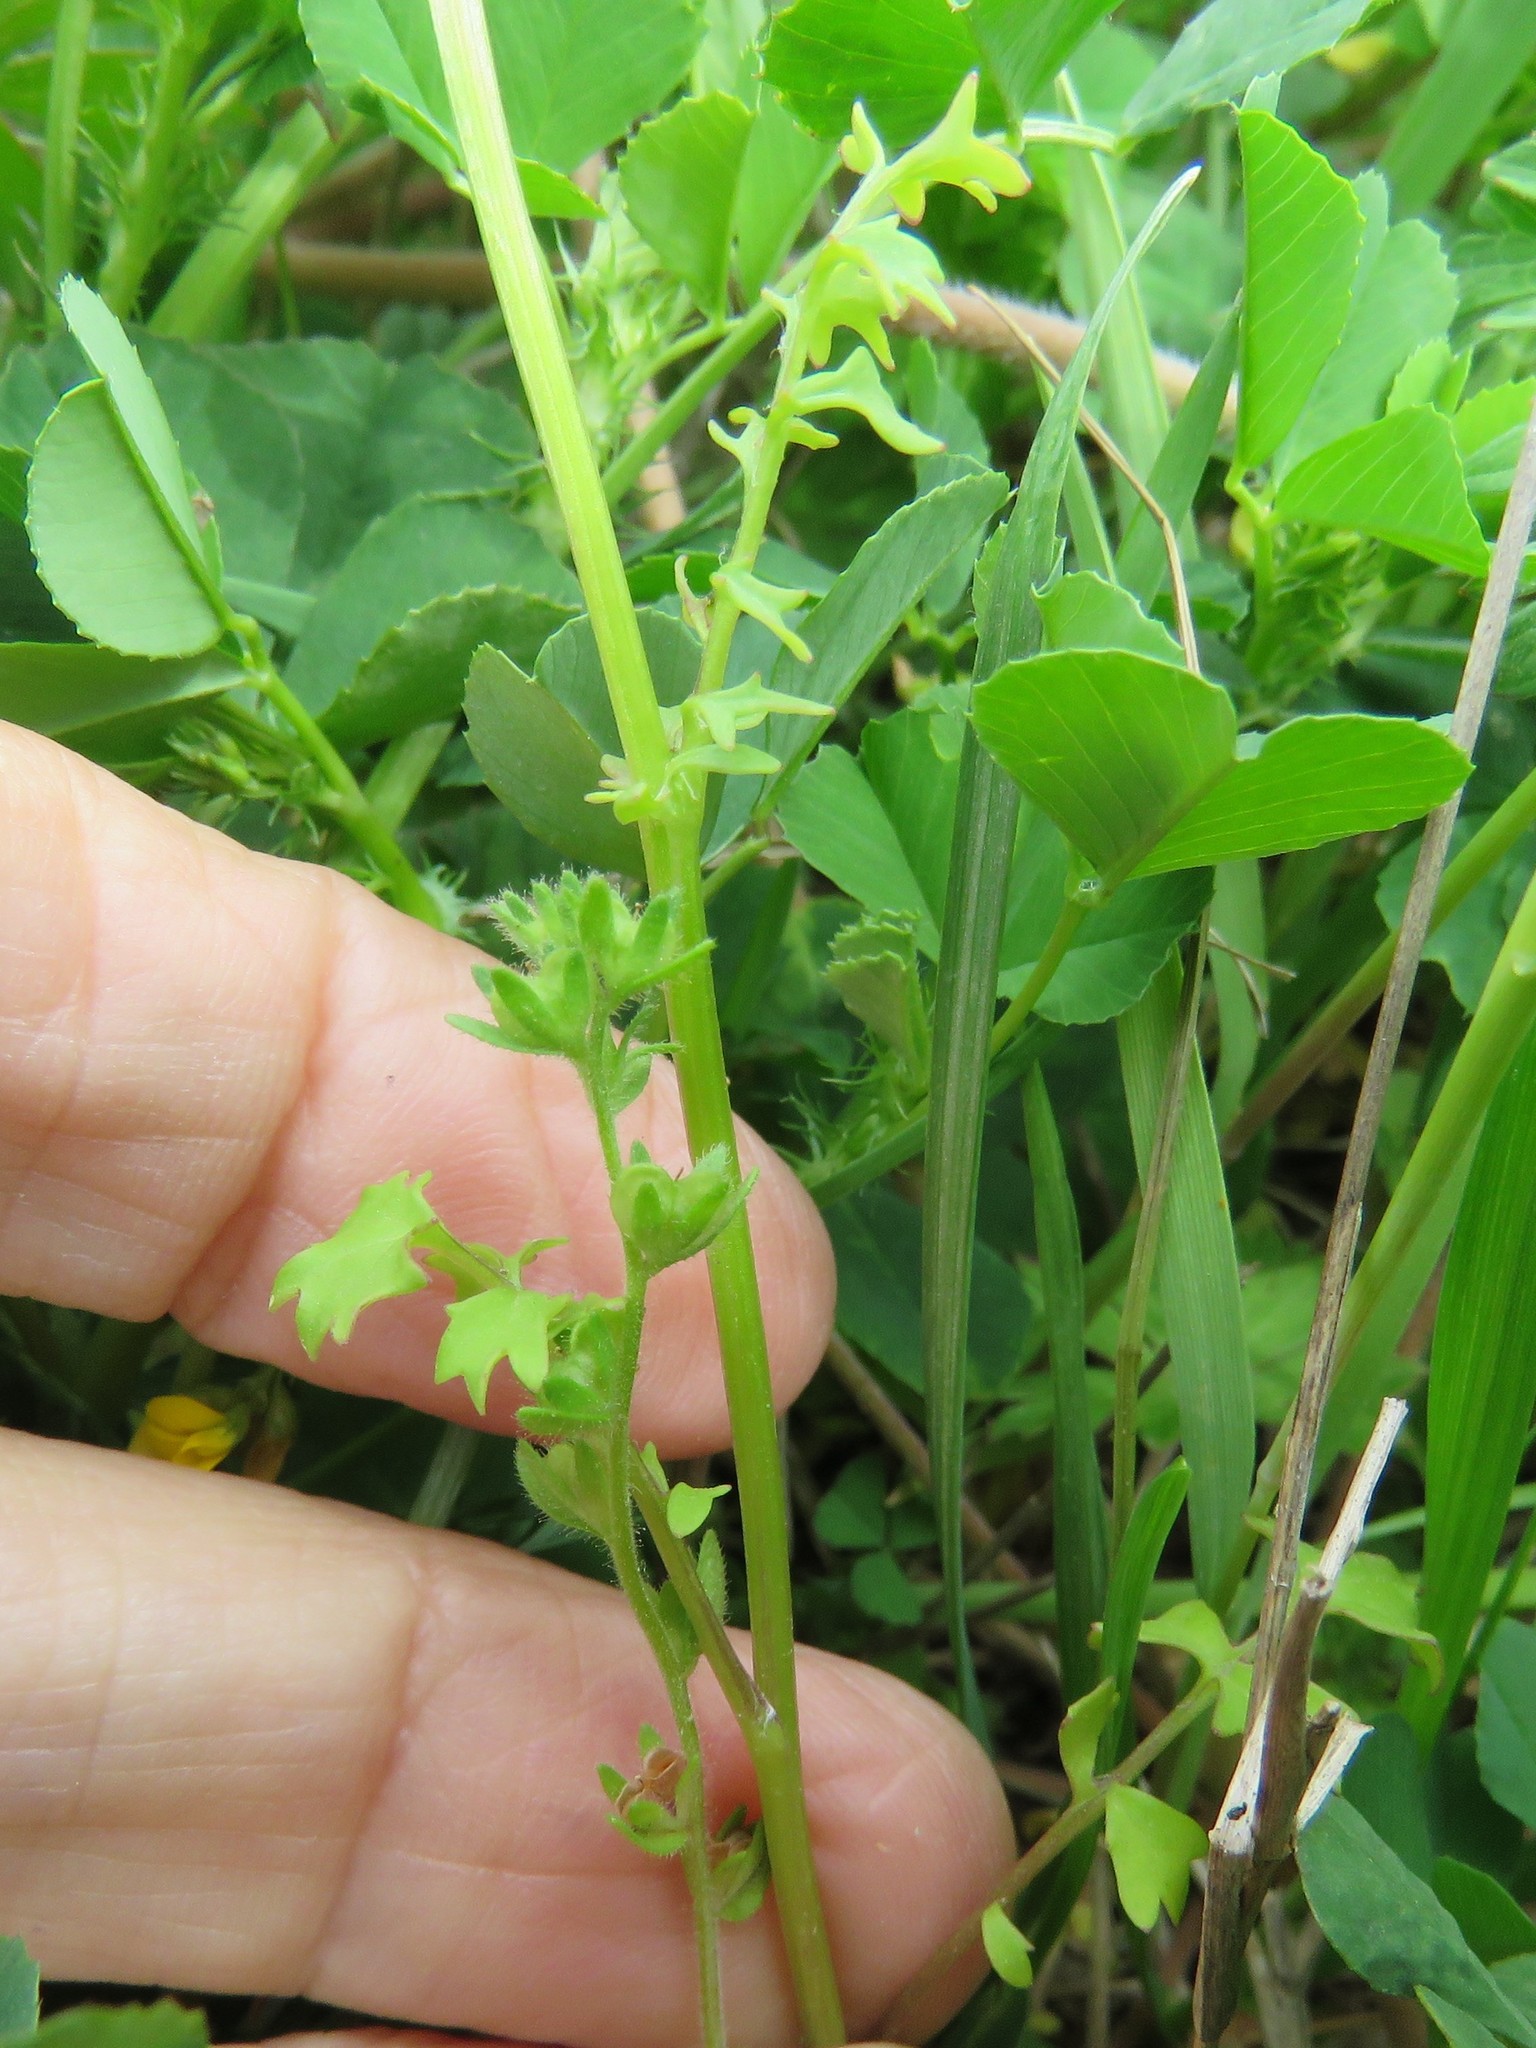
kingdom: Plantae
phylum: Tracheophyta
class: Magnoliopsida
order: Asterales
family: Asteraceae
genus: Packera
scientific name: Packera tampicana
